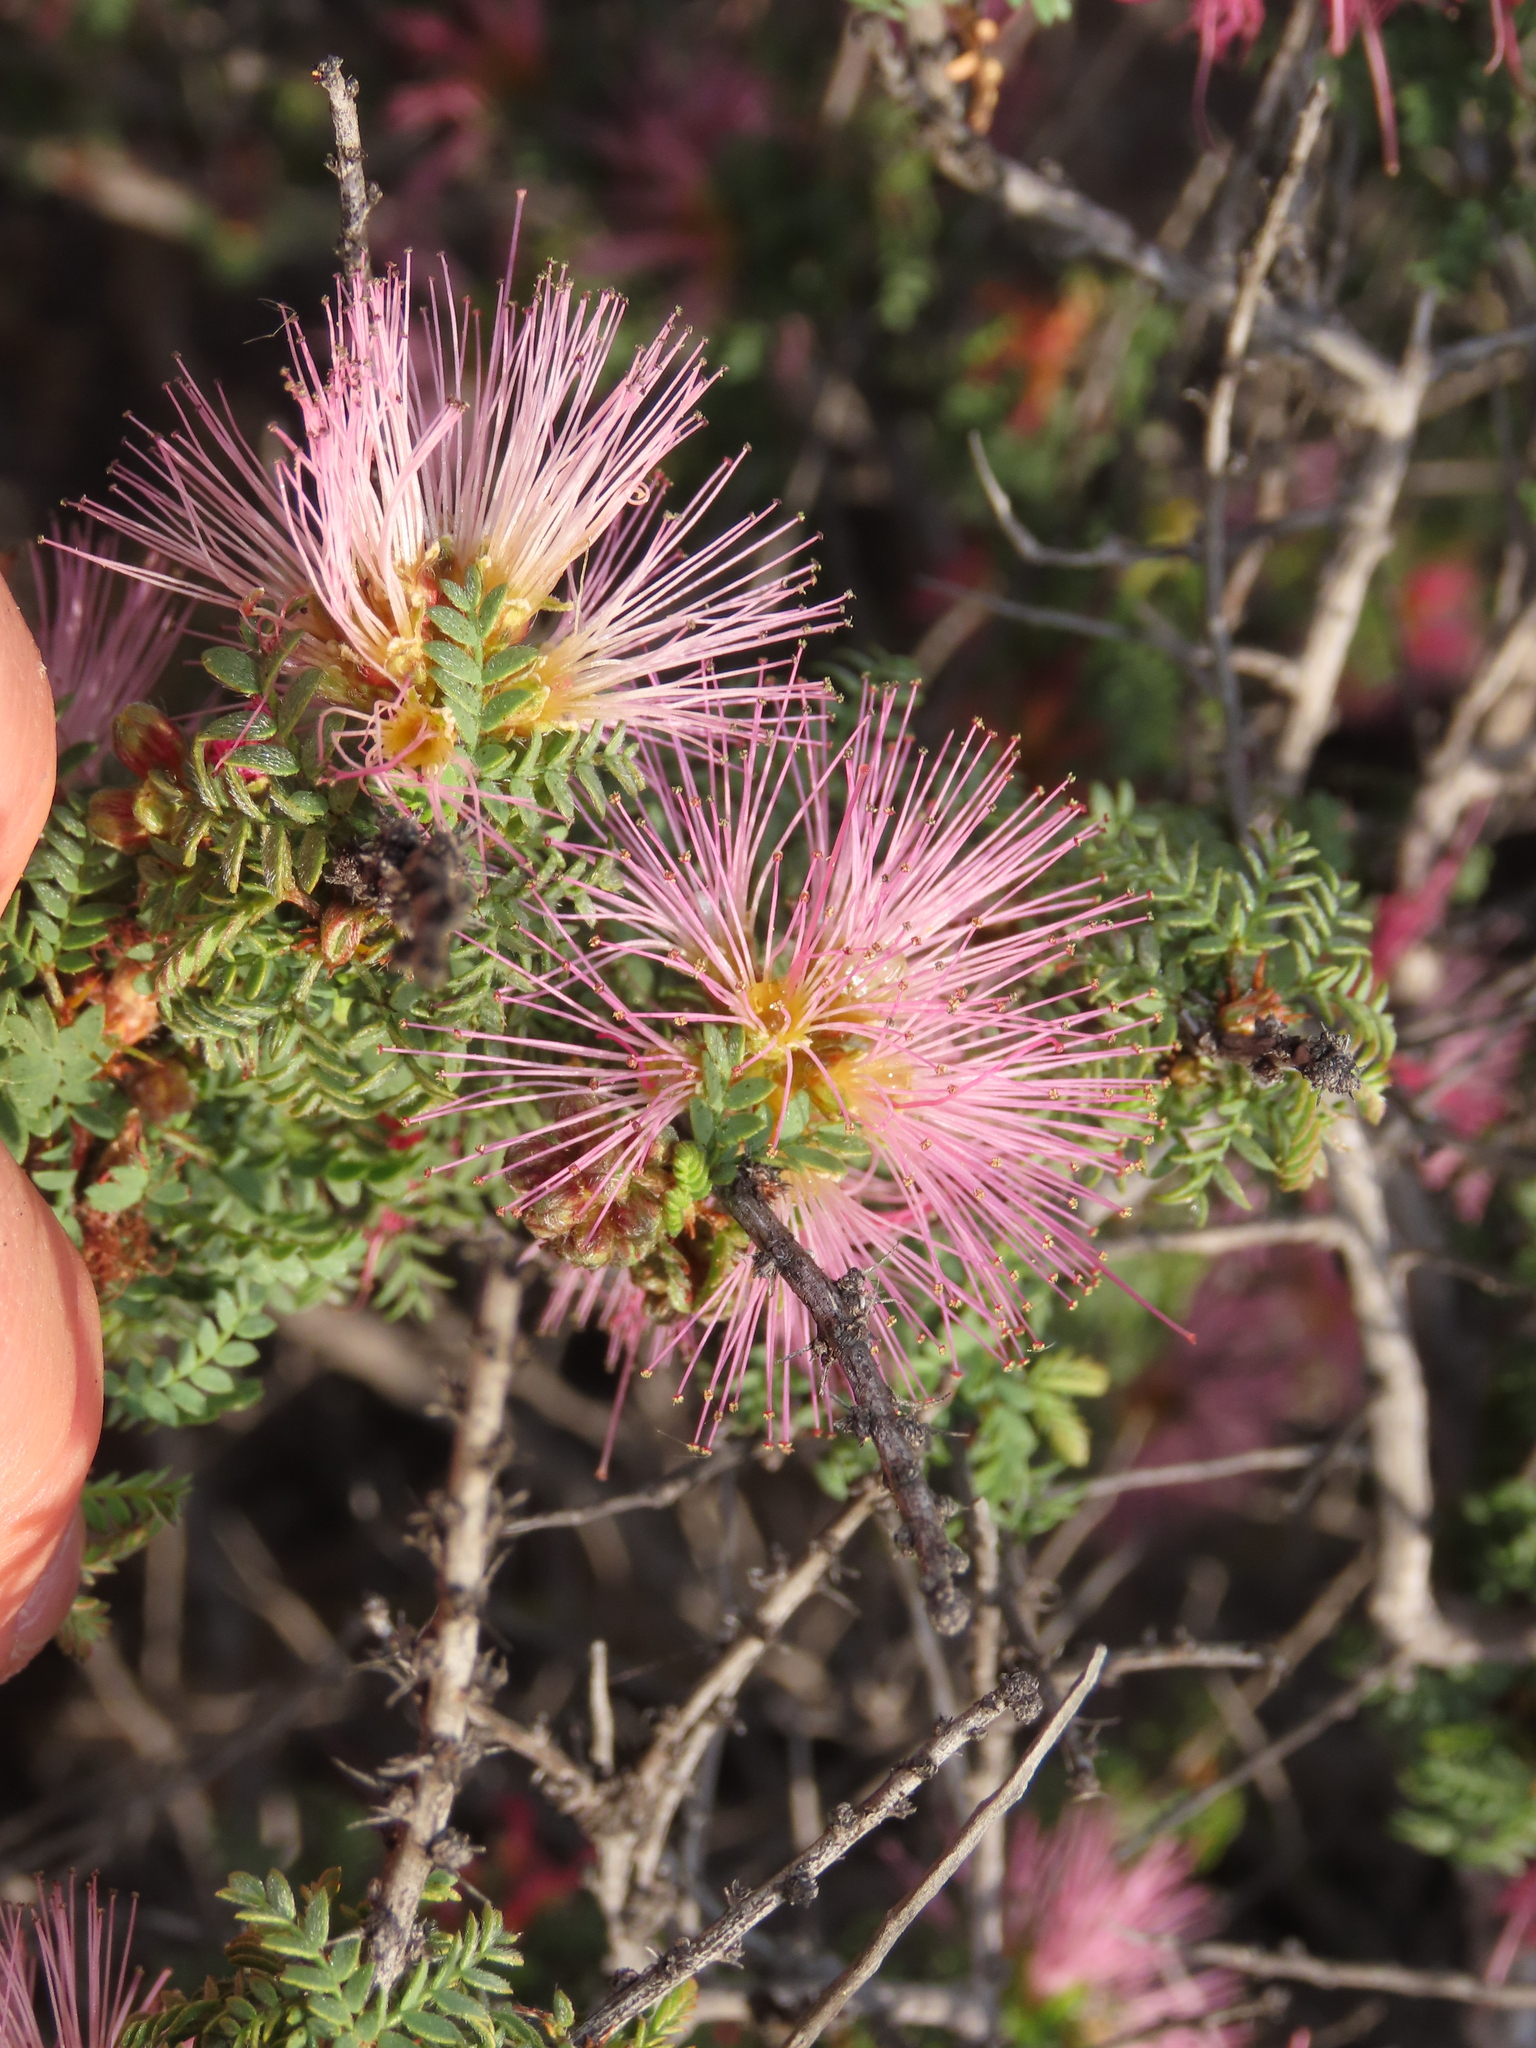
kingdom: Plantae
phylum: Tracheophyta
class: Magnoliopsida
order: Fabales
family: Fabaceae
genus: Calliandra
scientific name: Calliandra chilensis
